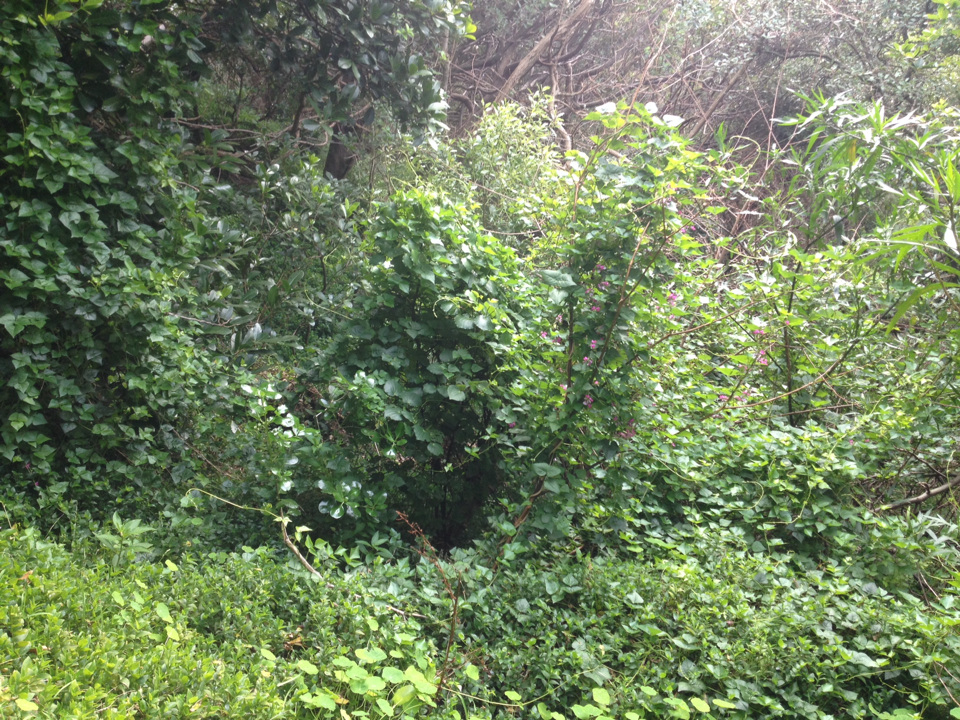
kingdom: Plantae
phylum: Tracheophyta
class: Magnoliopsida
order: Fabales
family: Fabaceae
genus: Dipogon
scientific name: Dipogon lignosus
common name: Okie bean
